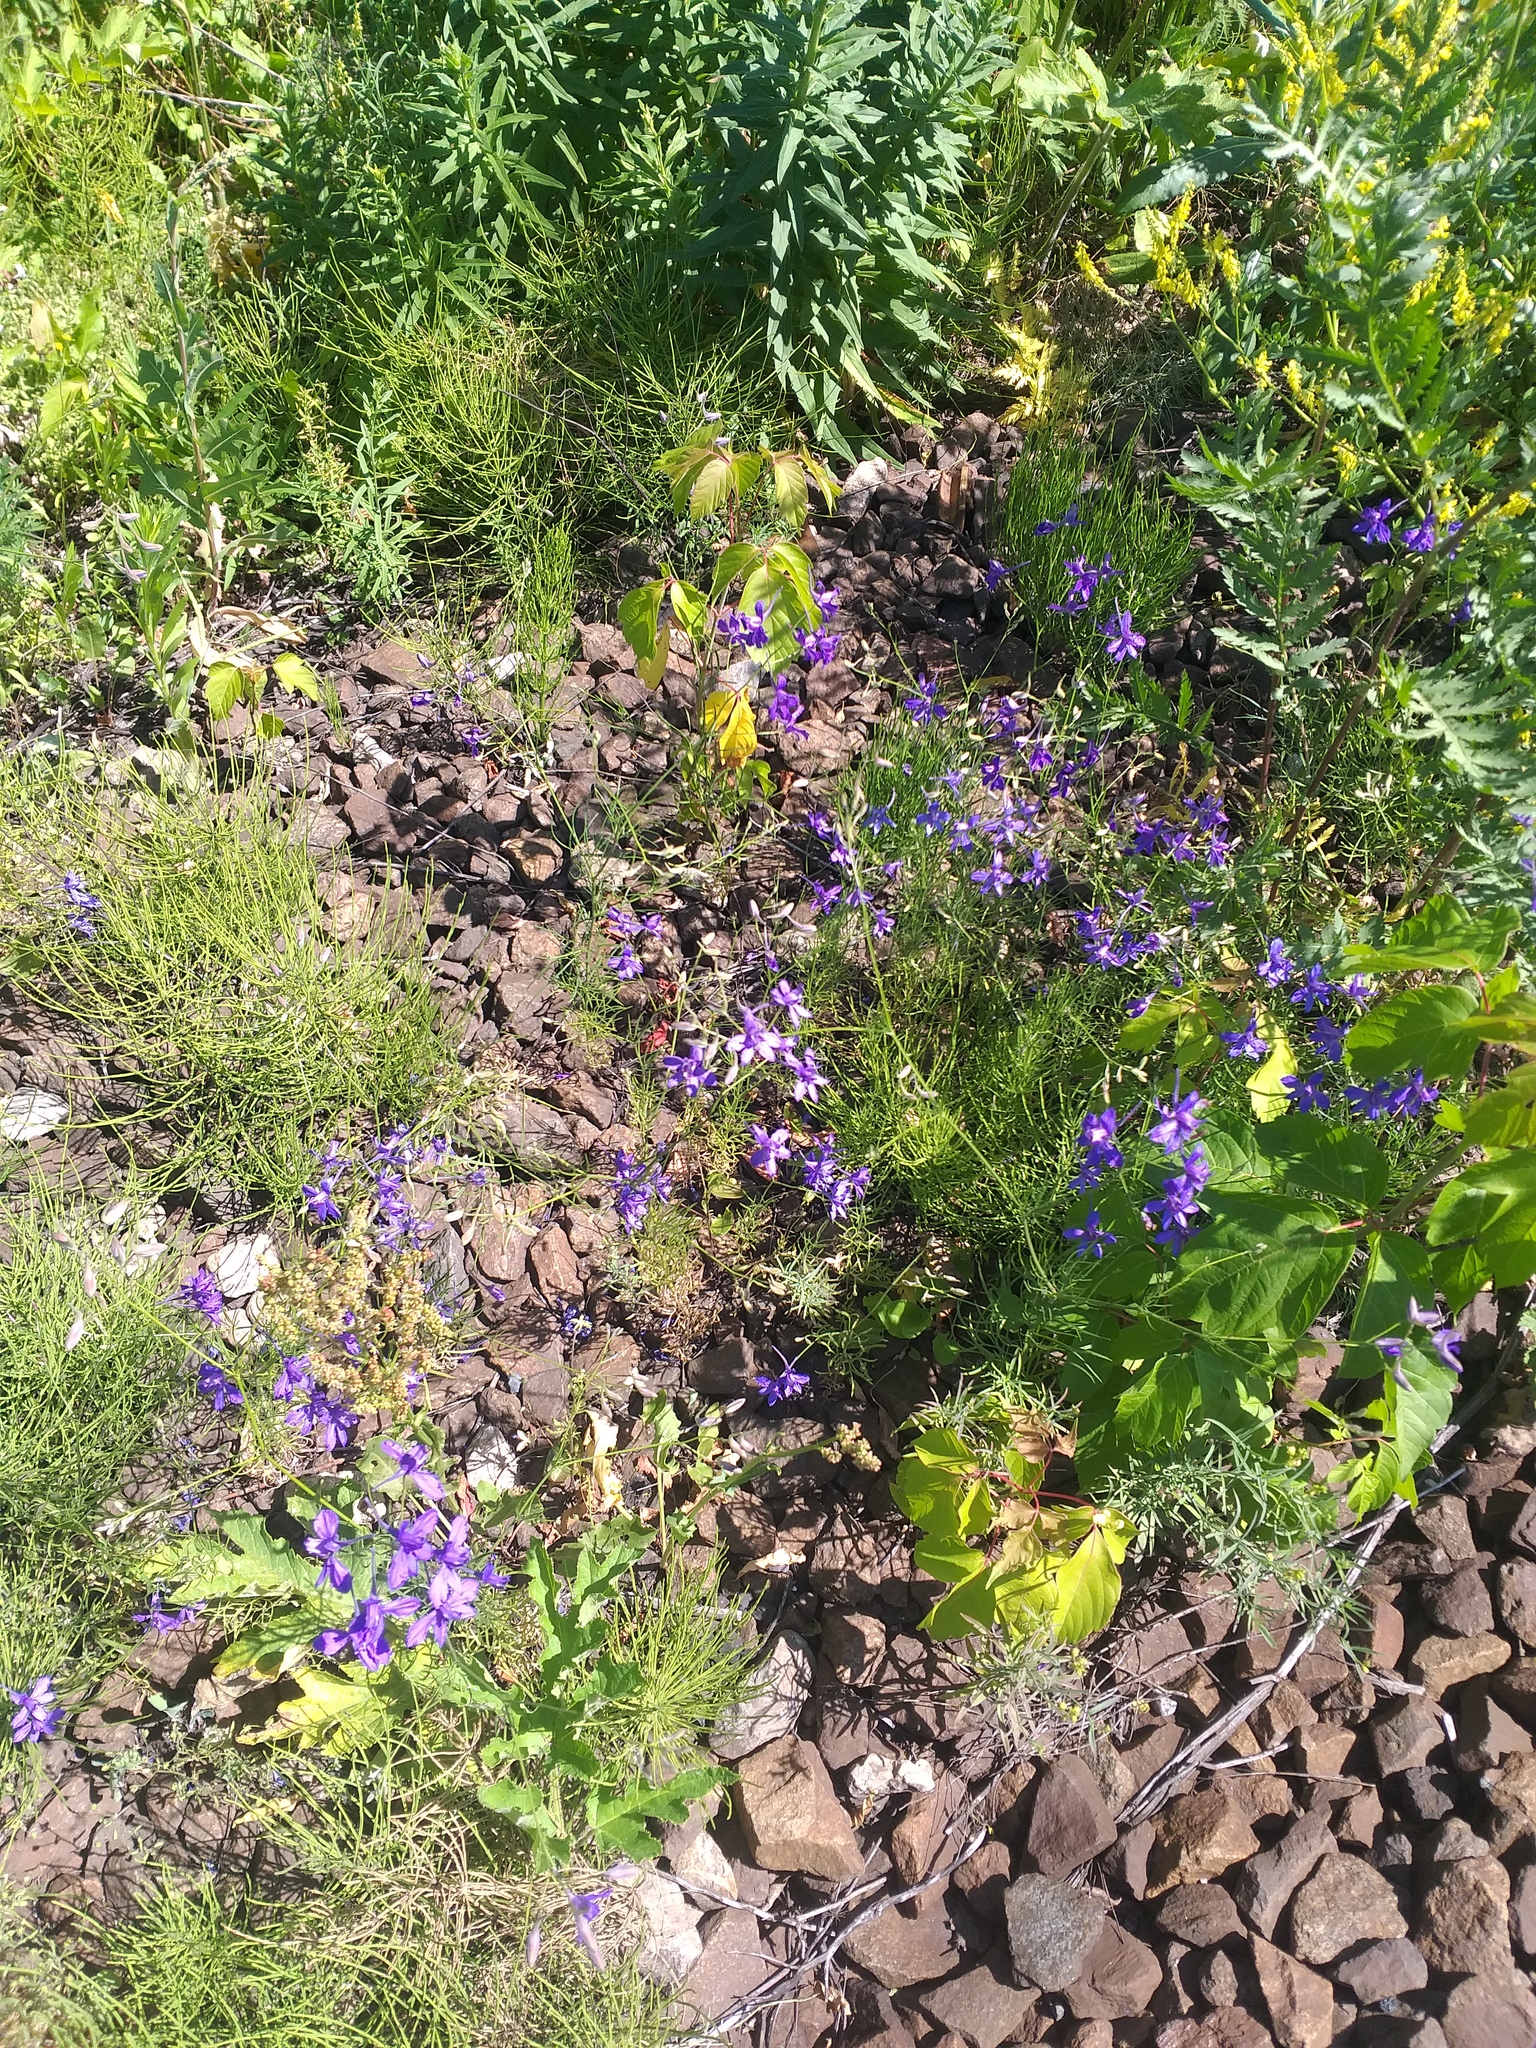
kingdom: Plantae
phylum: Tracheophyta
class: Magnoliopsida
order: Ranunculales
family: Ranunculaceae
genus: Delphinium
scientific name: Delphinium consolida
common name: Branching larkspur
